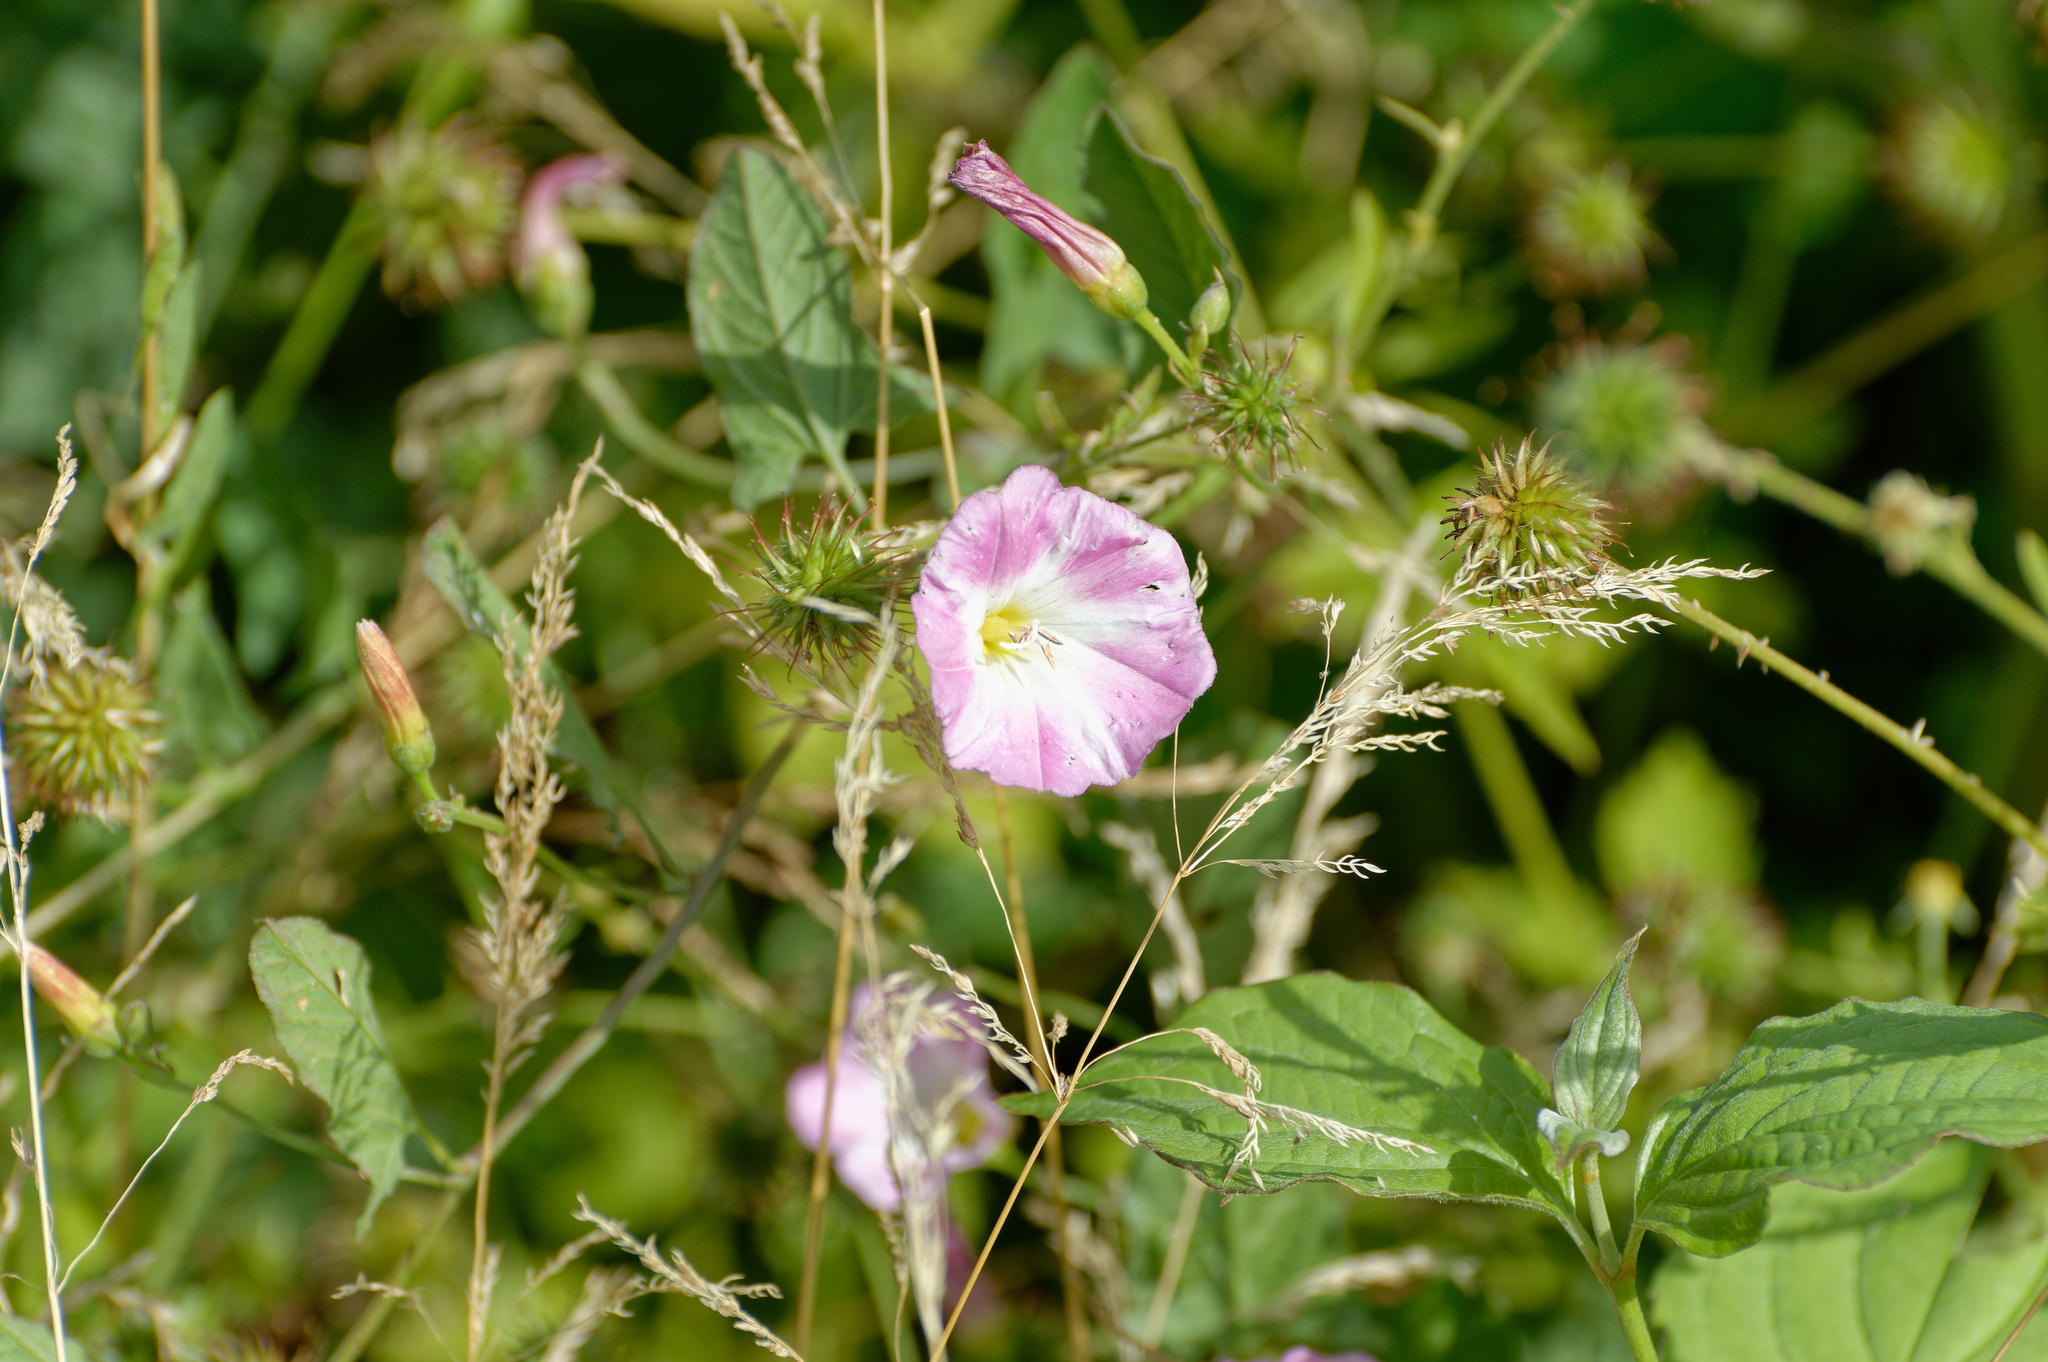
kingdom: Plantae
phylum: Tracheophyta
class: Magnoliopsida
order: Solanales
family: Convolvulaceae
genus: Convolvulus
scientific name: Convolvulus arvensis
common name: Field bindweed
